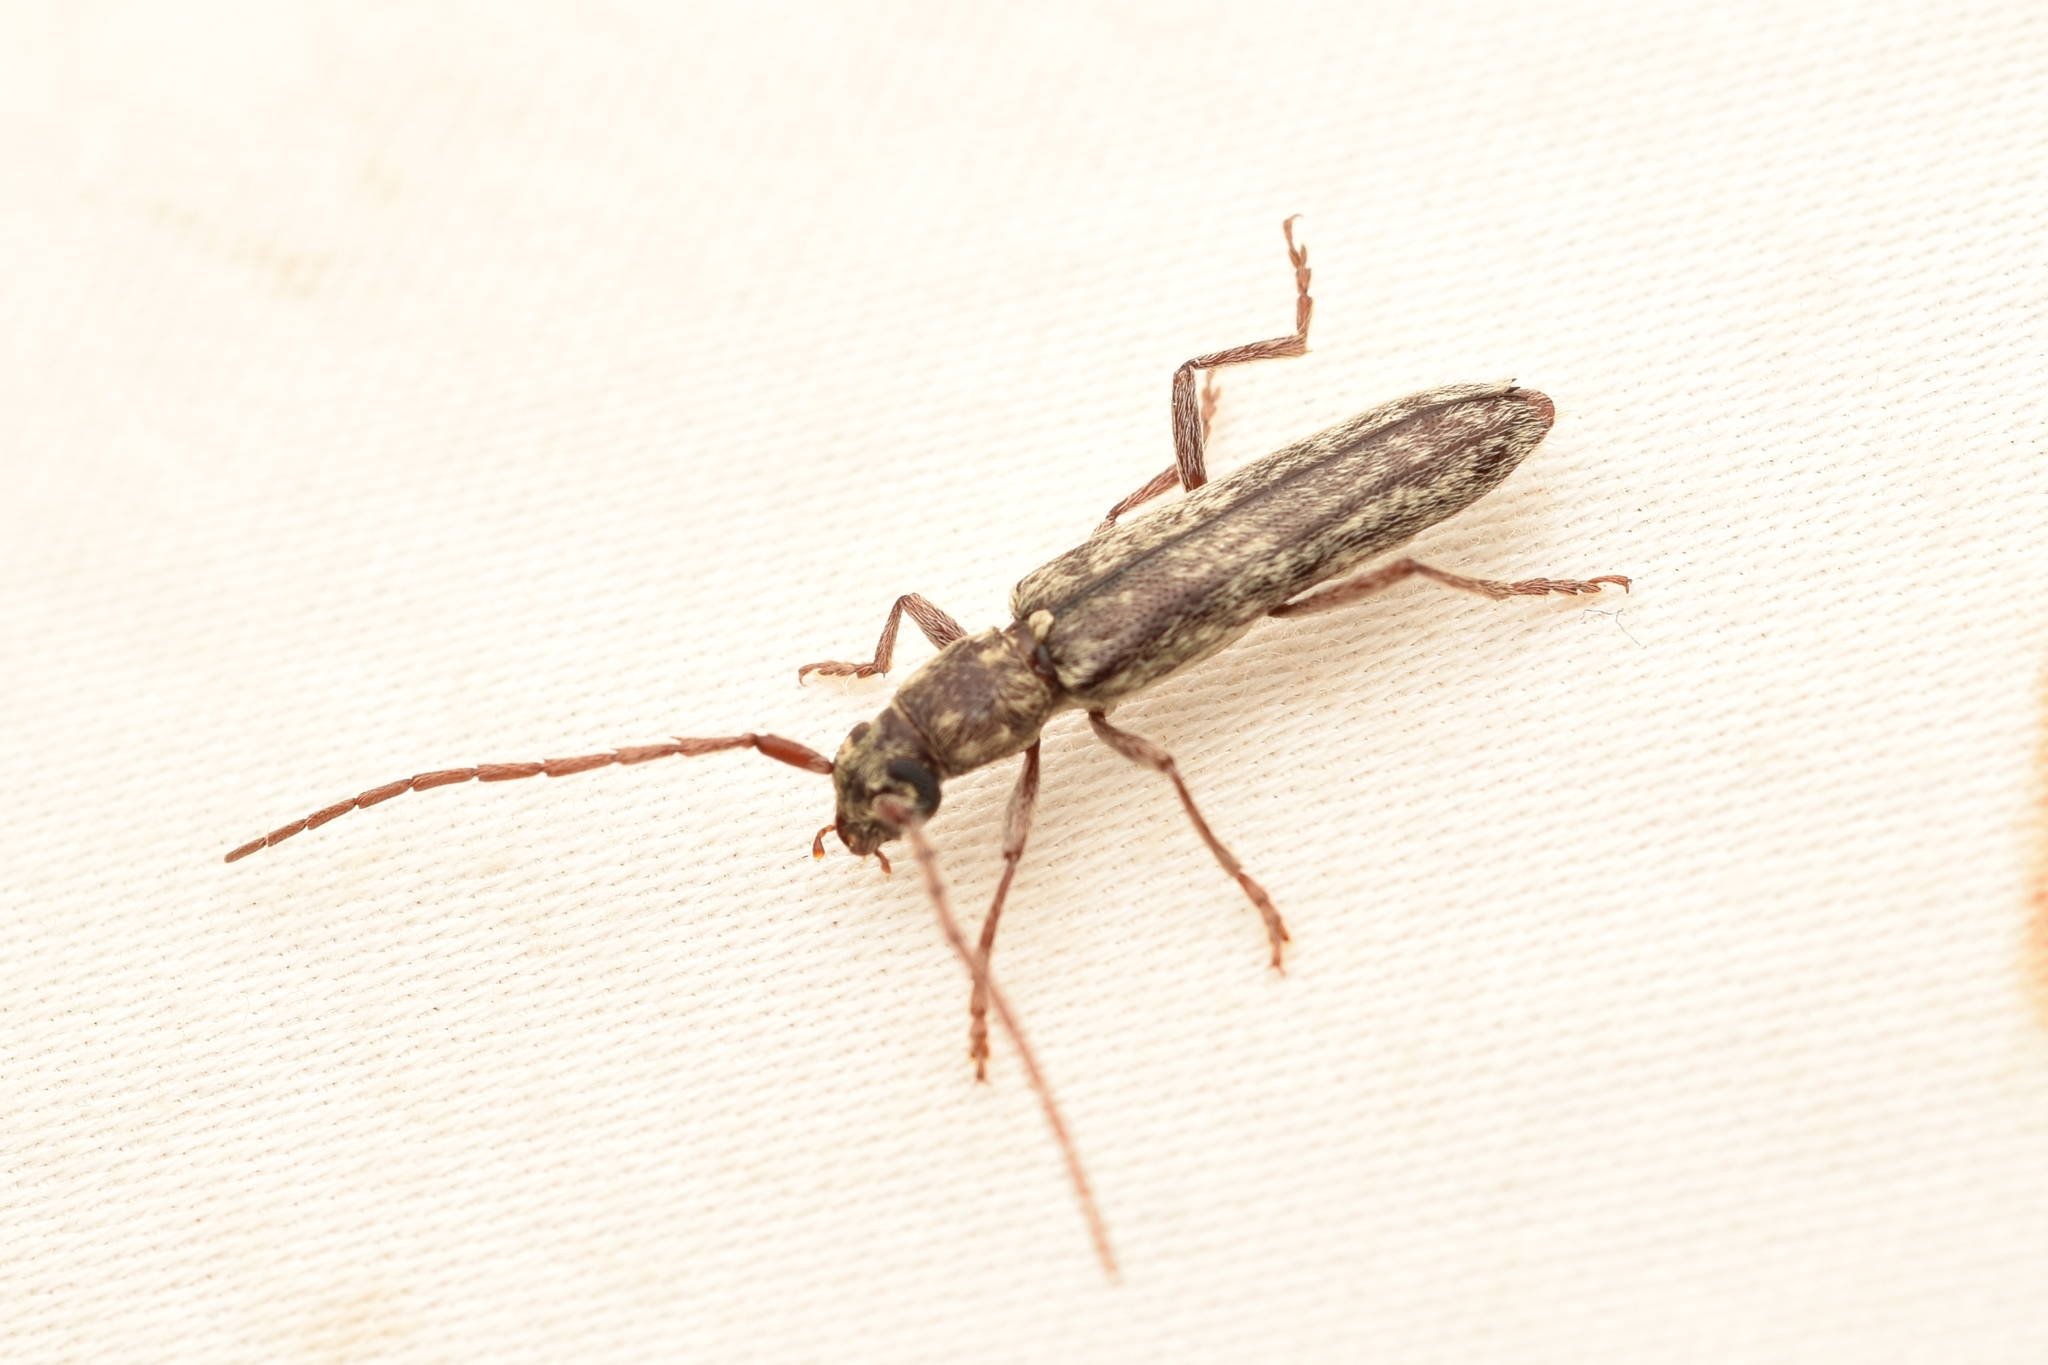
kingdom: Animalia
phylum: Arthropoda
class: Insecta
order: Coleoptera
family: Cerambycidae
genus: Anelaphus
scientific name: Anelaphus villosus
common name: Twig pruner
